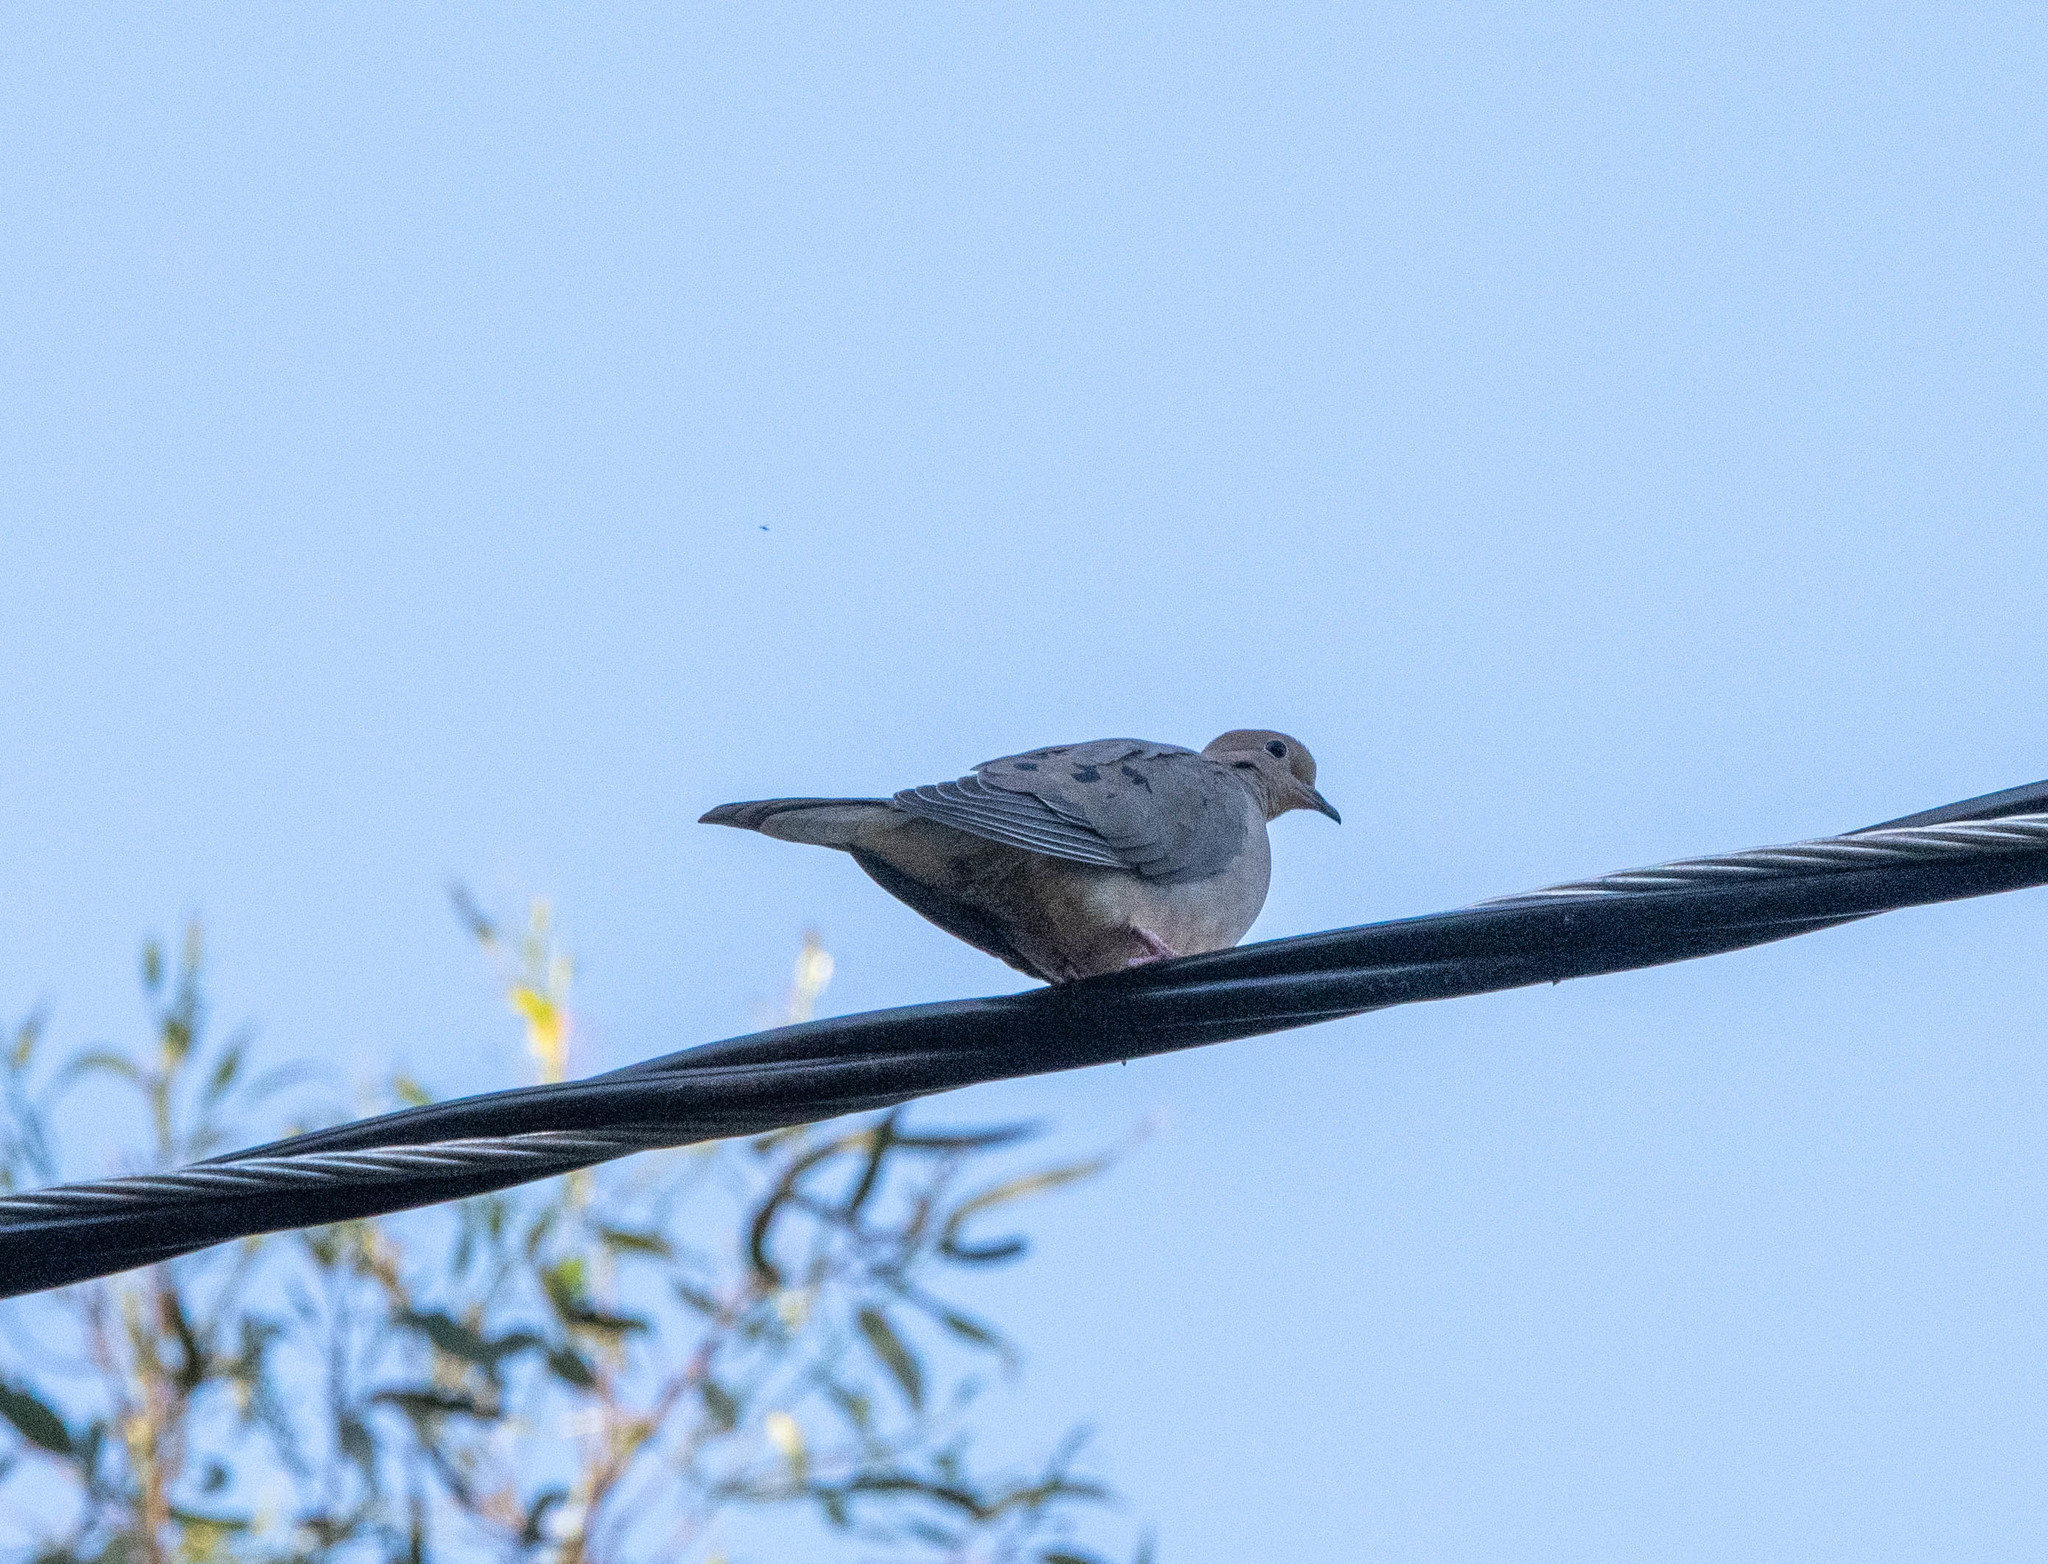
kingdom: Animalia
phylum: Chordata
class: Aves
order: Columbiformes
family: Columbidae
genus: Zenaida
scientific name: Zenaida macroura
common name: Mourning dove
